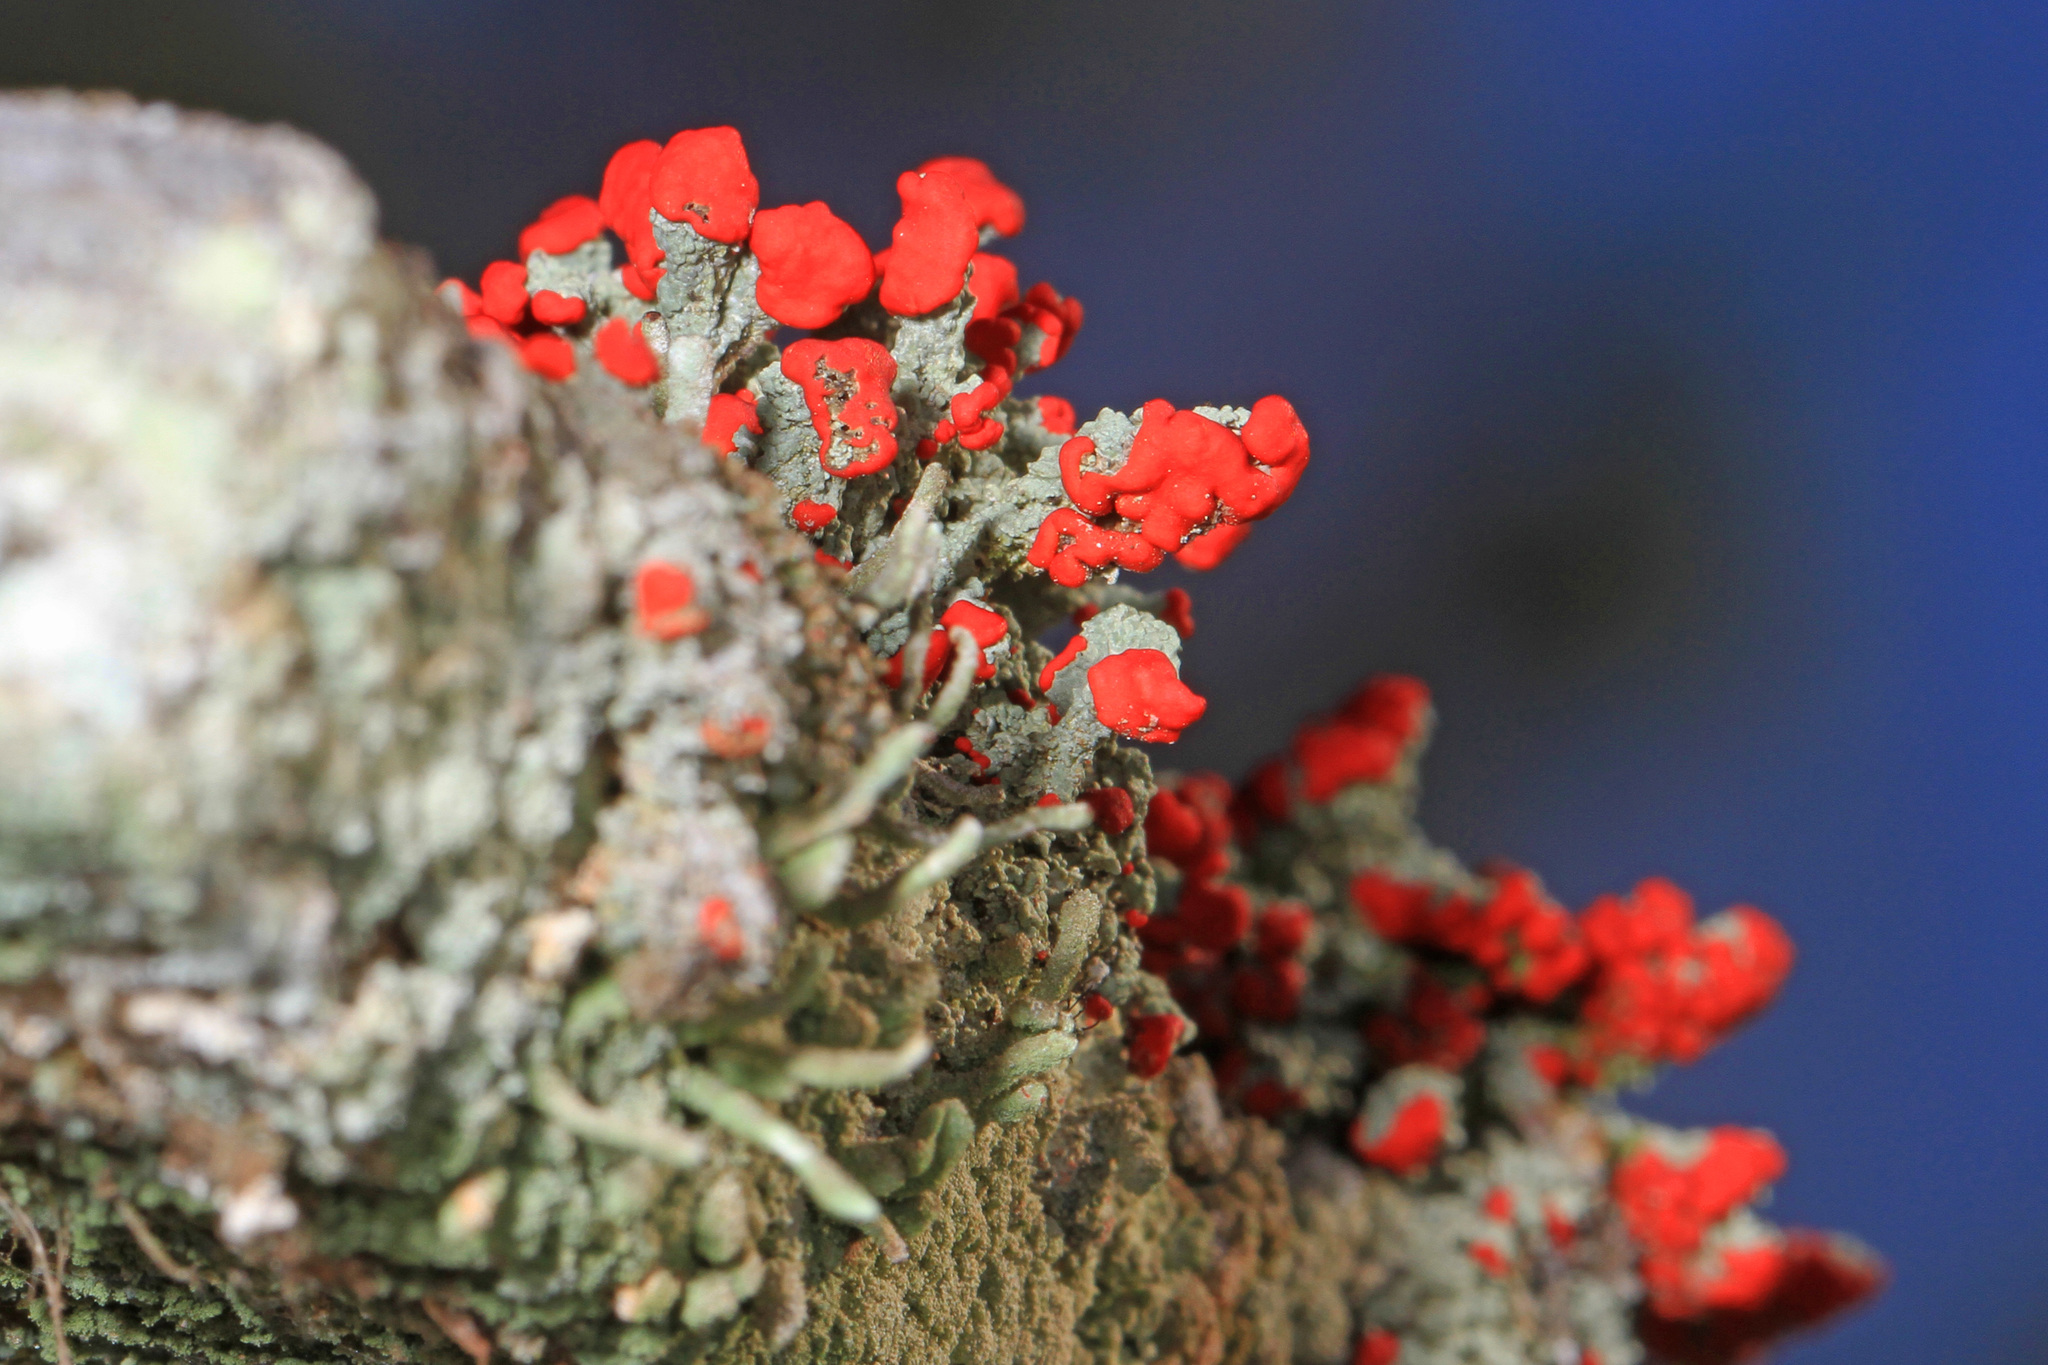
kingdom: Fungi
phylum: Ascomycota
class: Lecanoromycetes
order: Lecanorales
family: Cladoniaceae
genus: Cladonia
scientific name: Cladonia cristatella
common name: British soldier lichen
